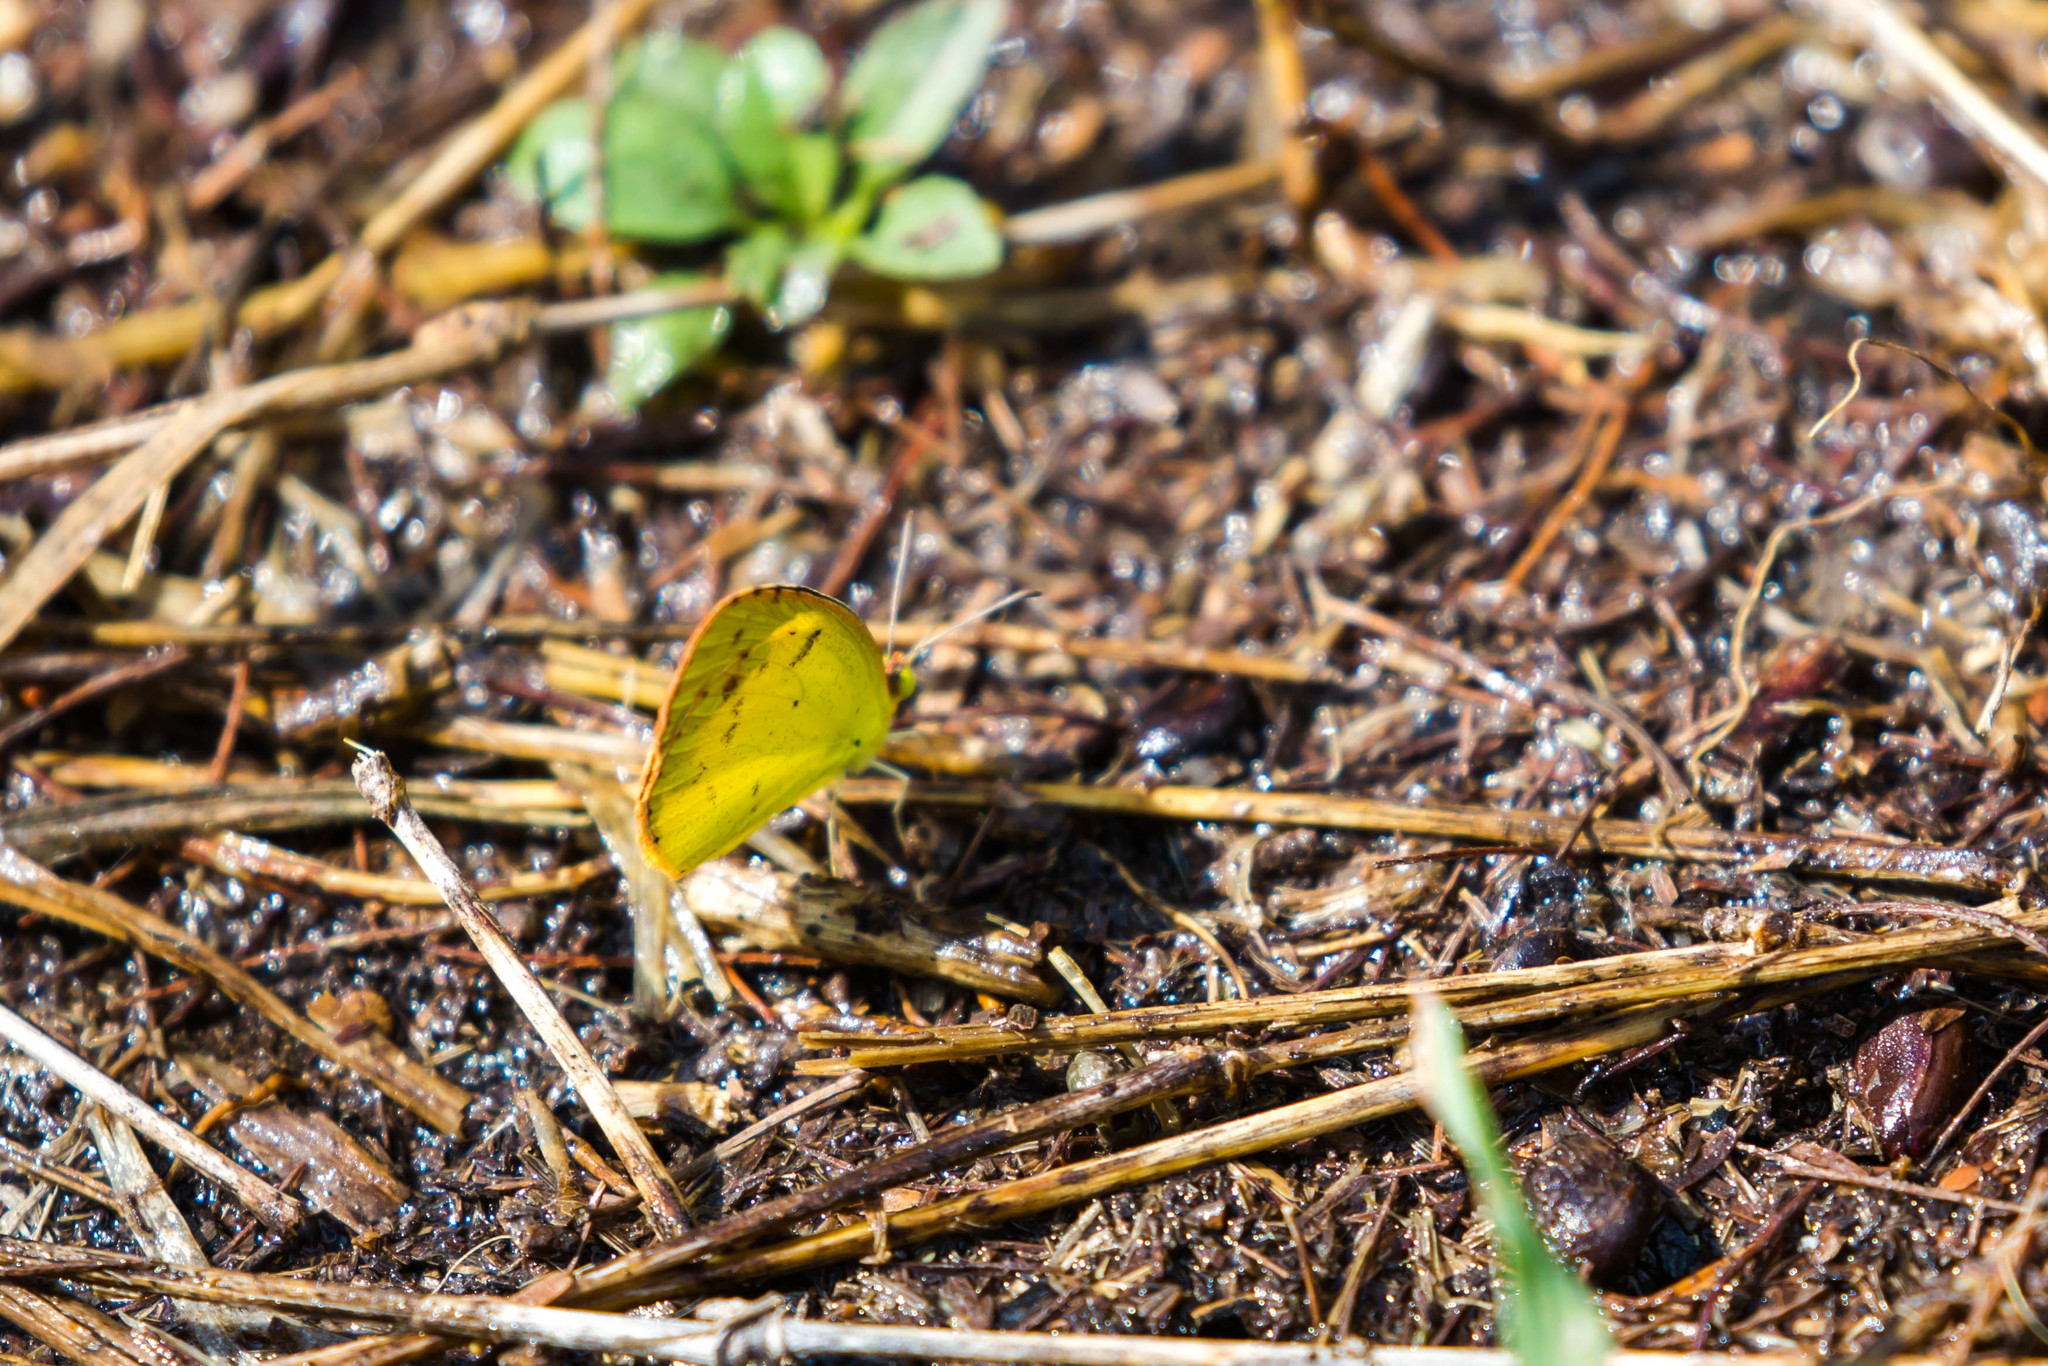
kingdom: Animalia
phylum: Arthropoda
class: Insecta
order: Lepidoptera
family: Pieridae
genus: Pyrisitia
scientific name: Pyrisitia lisa
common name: Little yellow
